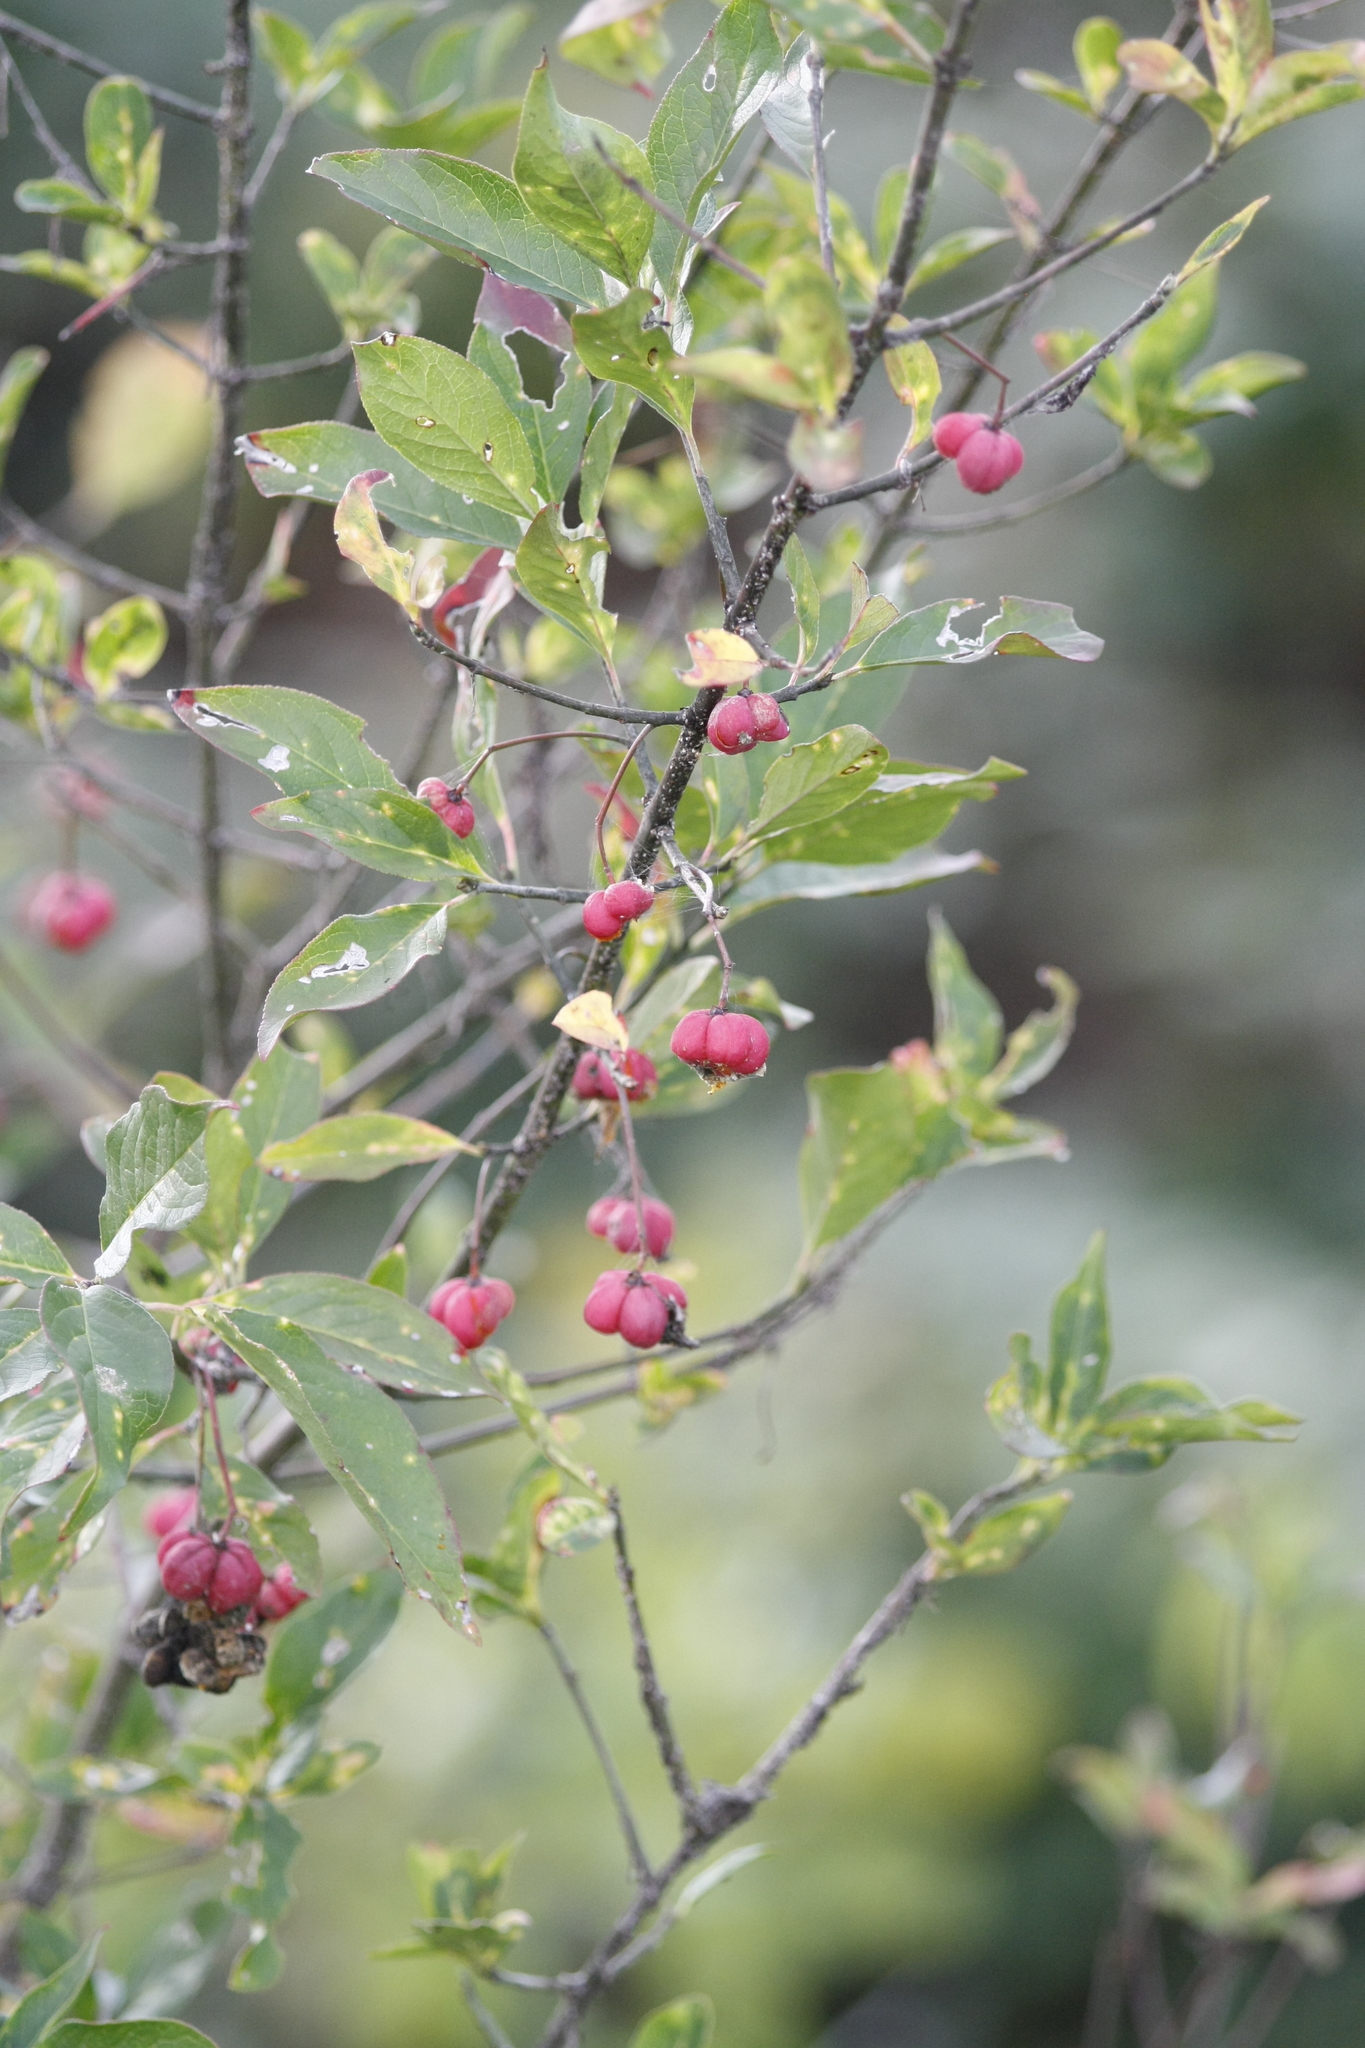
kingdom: Plantae
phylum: Tracheophyta
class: Magnoliopsida
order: Celastrales
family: Celastraceae
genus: Euonymus
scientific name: Euonymus europaeus
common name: Spindle
